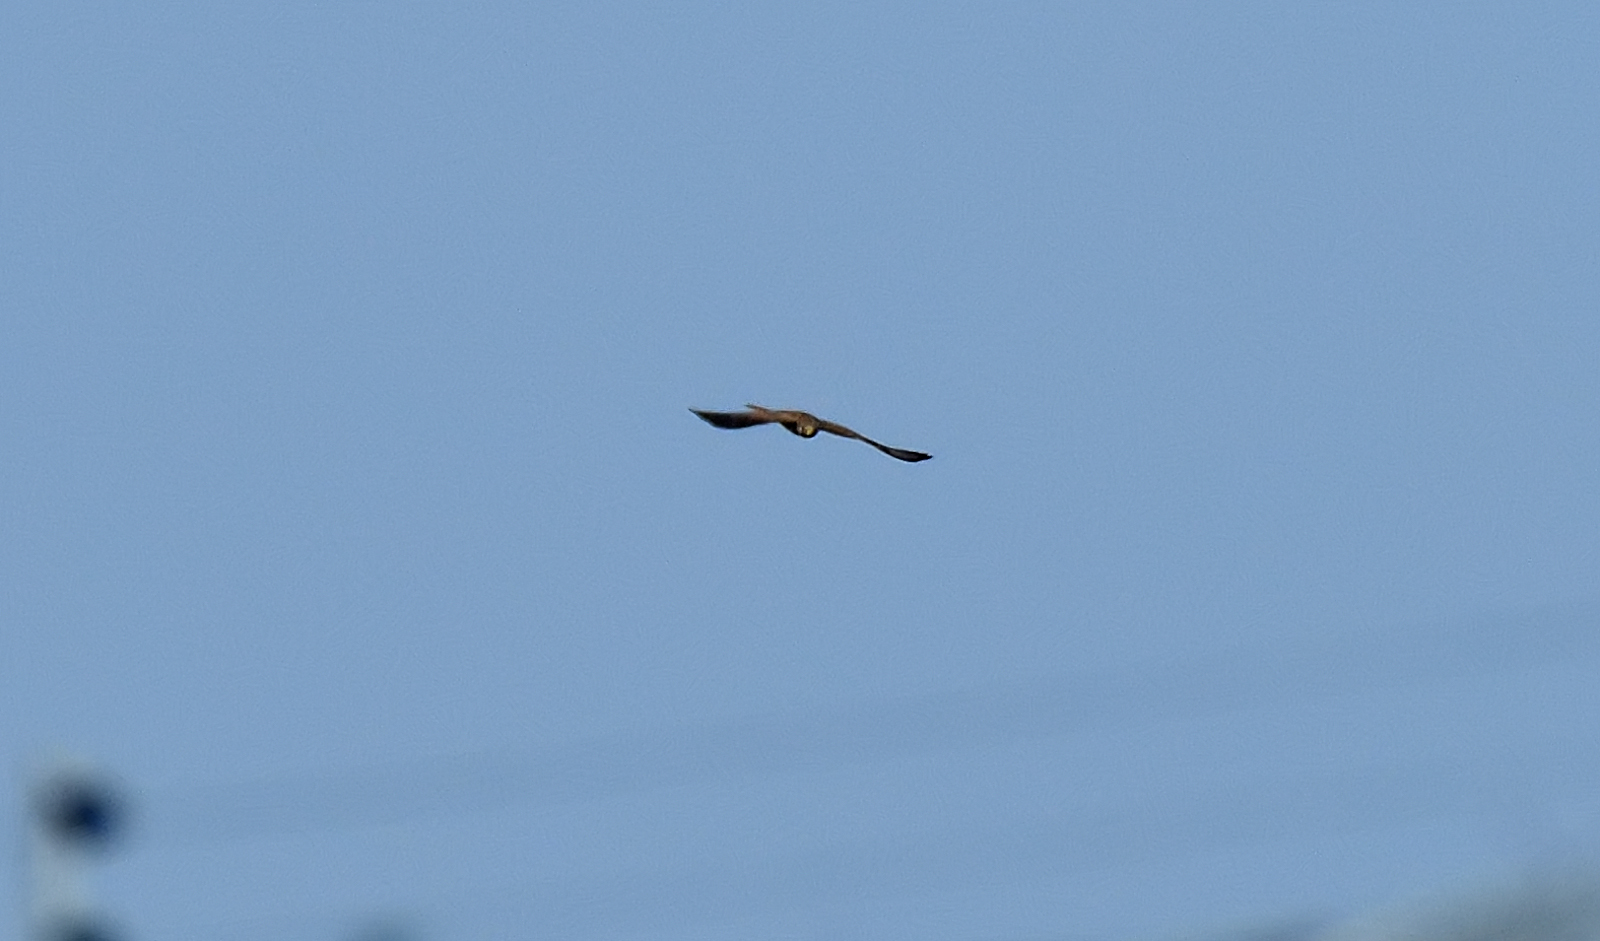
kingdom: Animalia
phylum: Chordata
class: Aves
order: Falconiformes
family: Falconidae
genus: Falco
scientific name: Falco tinnunculus
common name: Common kestrel
